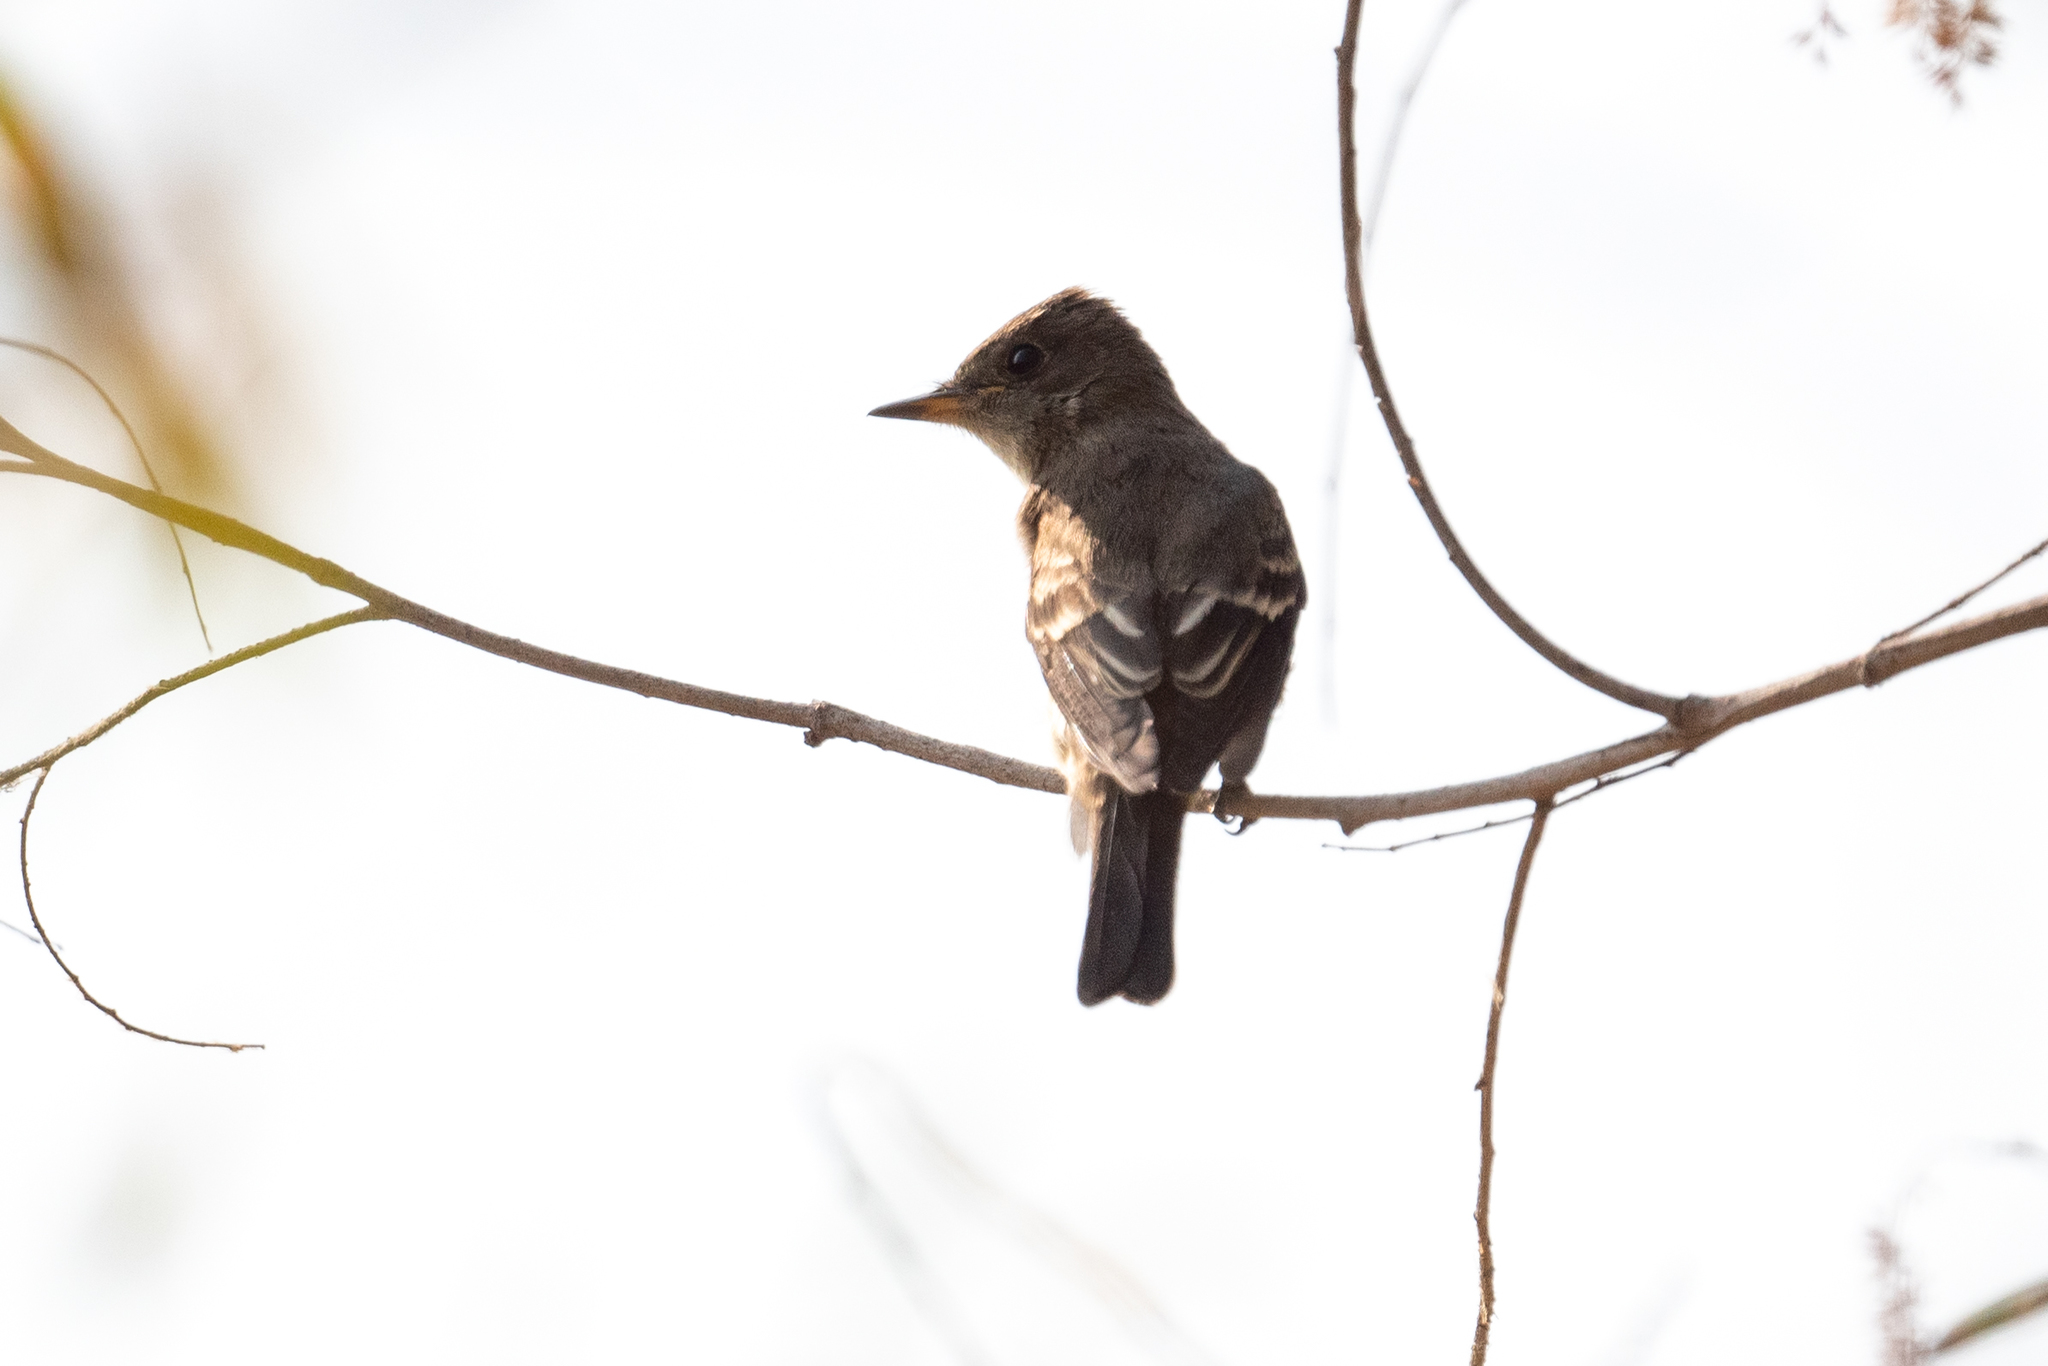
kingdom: Animalia
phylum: Chordata
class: Aves
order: Passeriformes
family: Tyrannidae
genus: Contopus
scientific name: Contopus sordidulus
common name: Western wood-pewee
